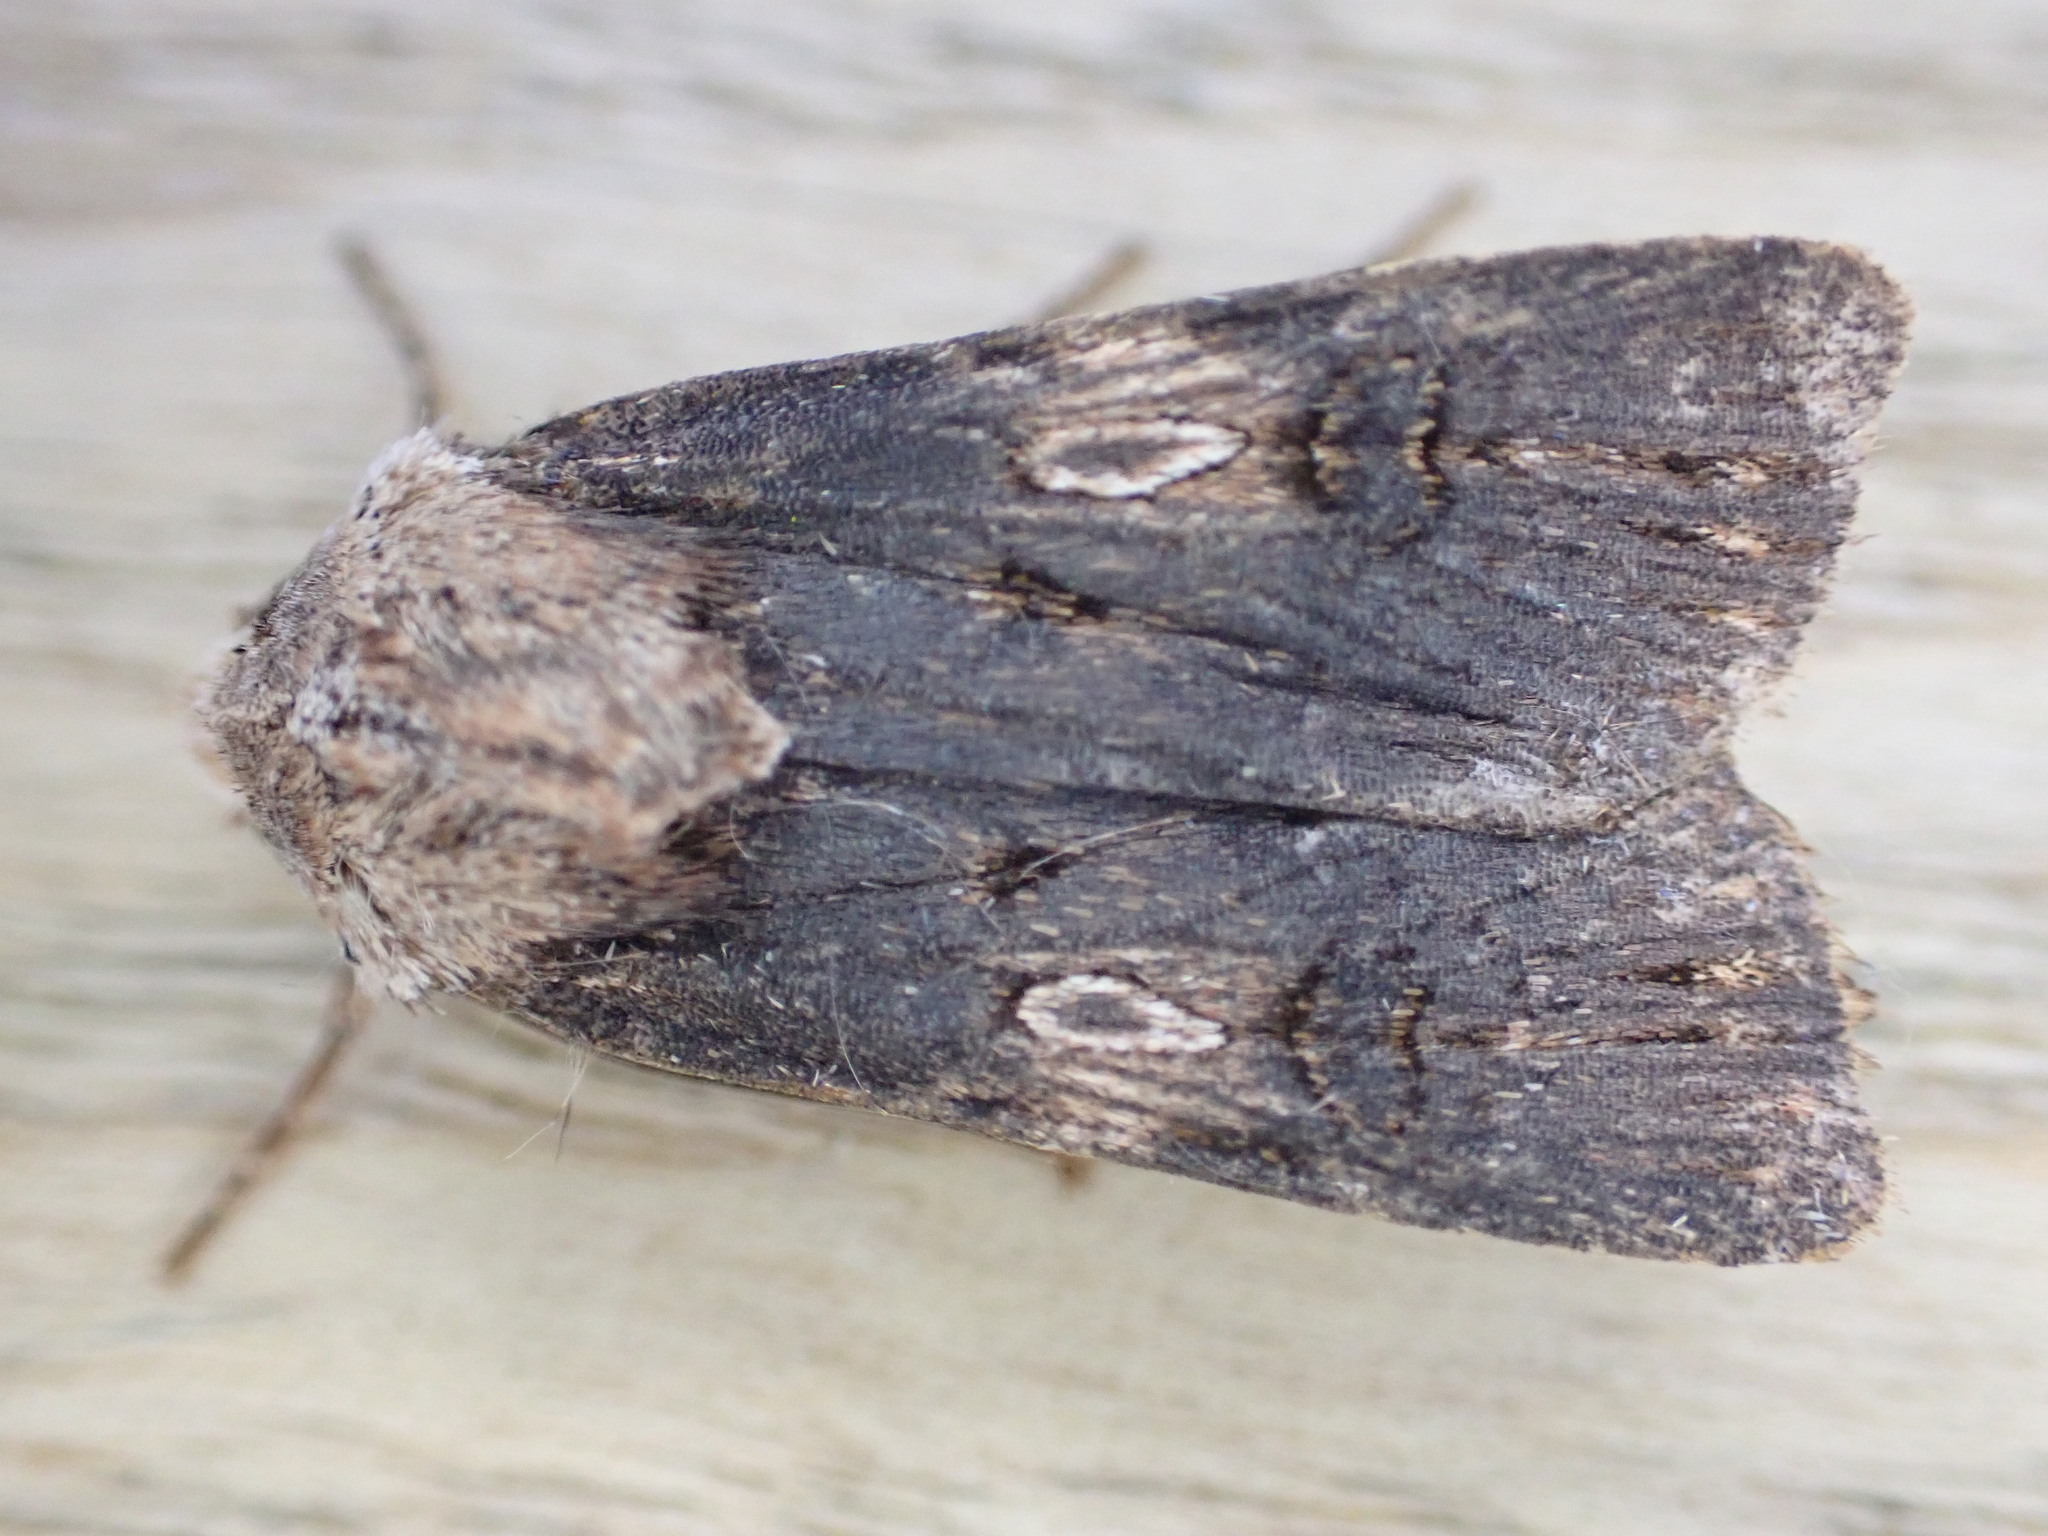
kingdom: Animalia
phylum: Arthropoda
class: Insecta
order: Lepidoptera
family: Noctuidae
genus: Agrotis
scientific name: Agrotis puta
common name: Shuttle-shaped dart
